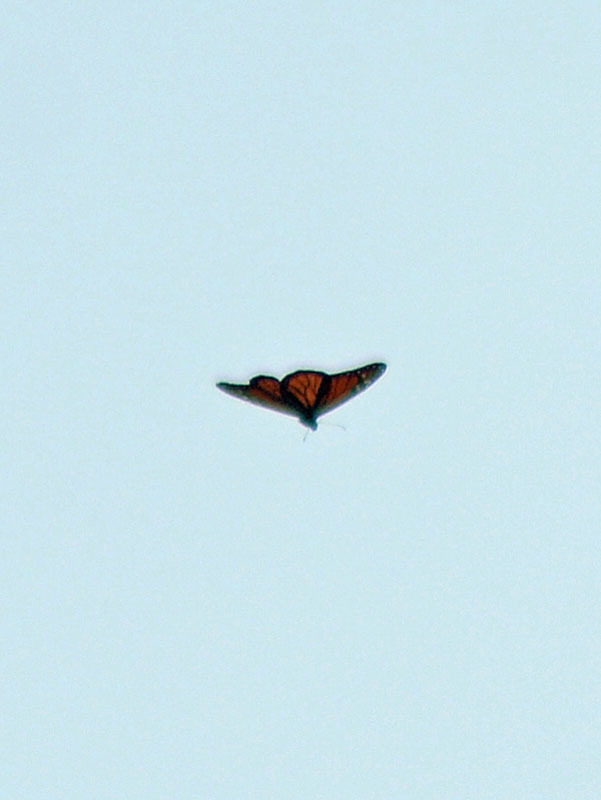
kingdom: Animalia
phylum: Arthropoda
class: Insecta
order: Lepidoptera
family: Nymphalidae
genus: Danaus
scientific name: Danaus plexippus
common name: Monarch
